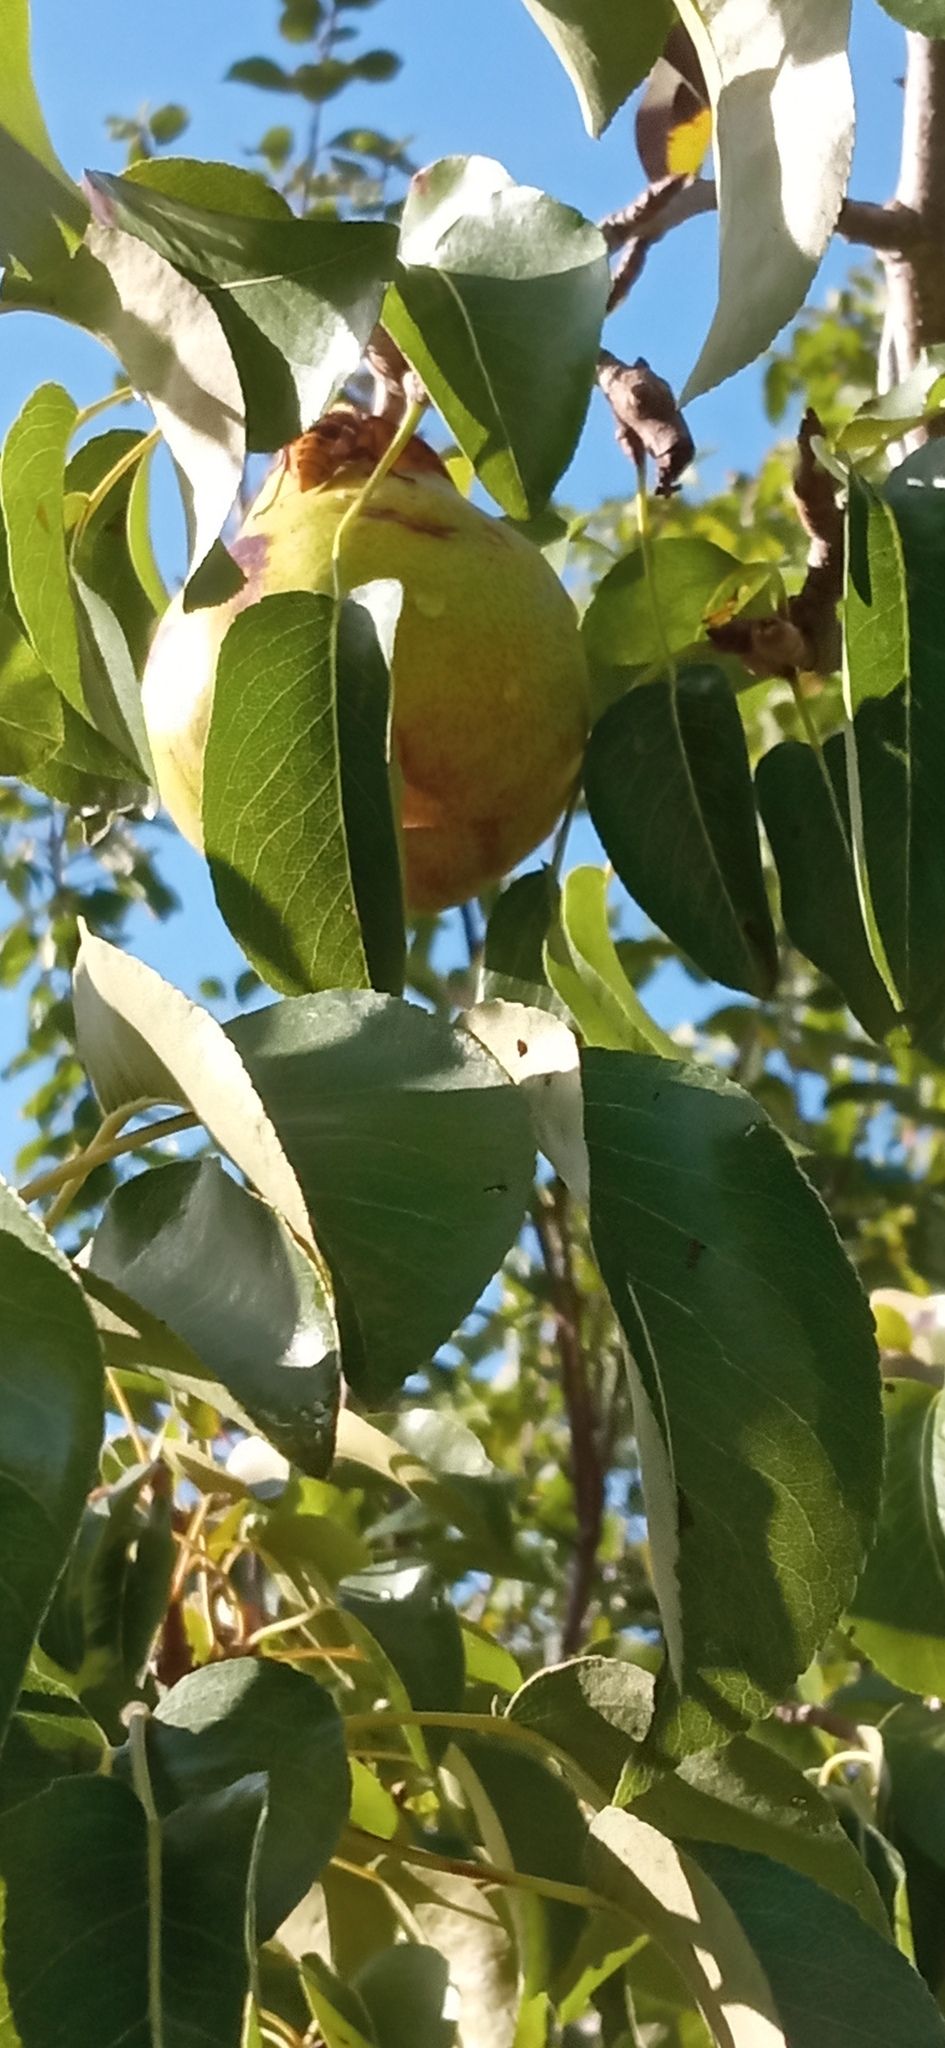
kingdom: Animalia
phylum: Arthropoda
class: Insecta
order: Hymenoptera
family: Vespidae
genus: Vespa
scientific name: Vespa crabro
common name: Hornet
